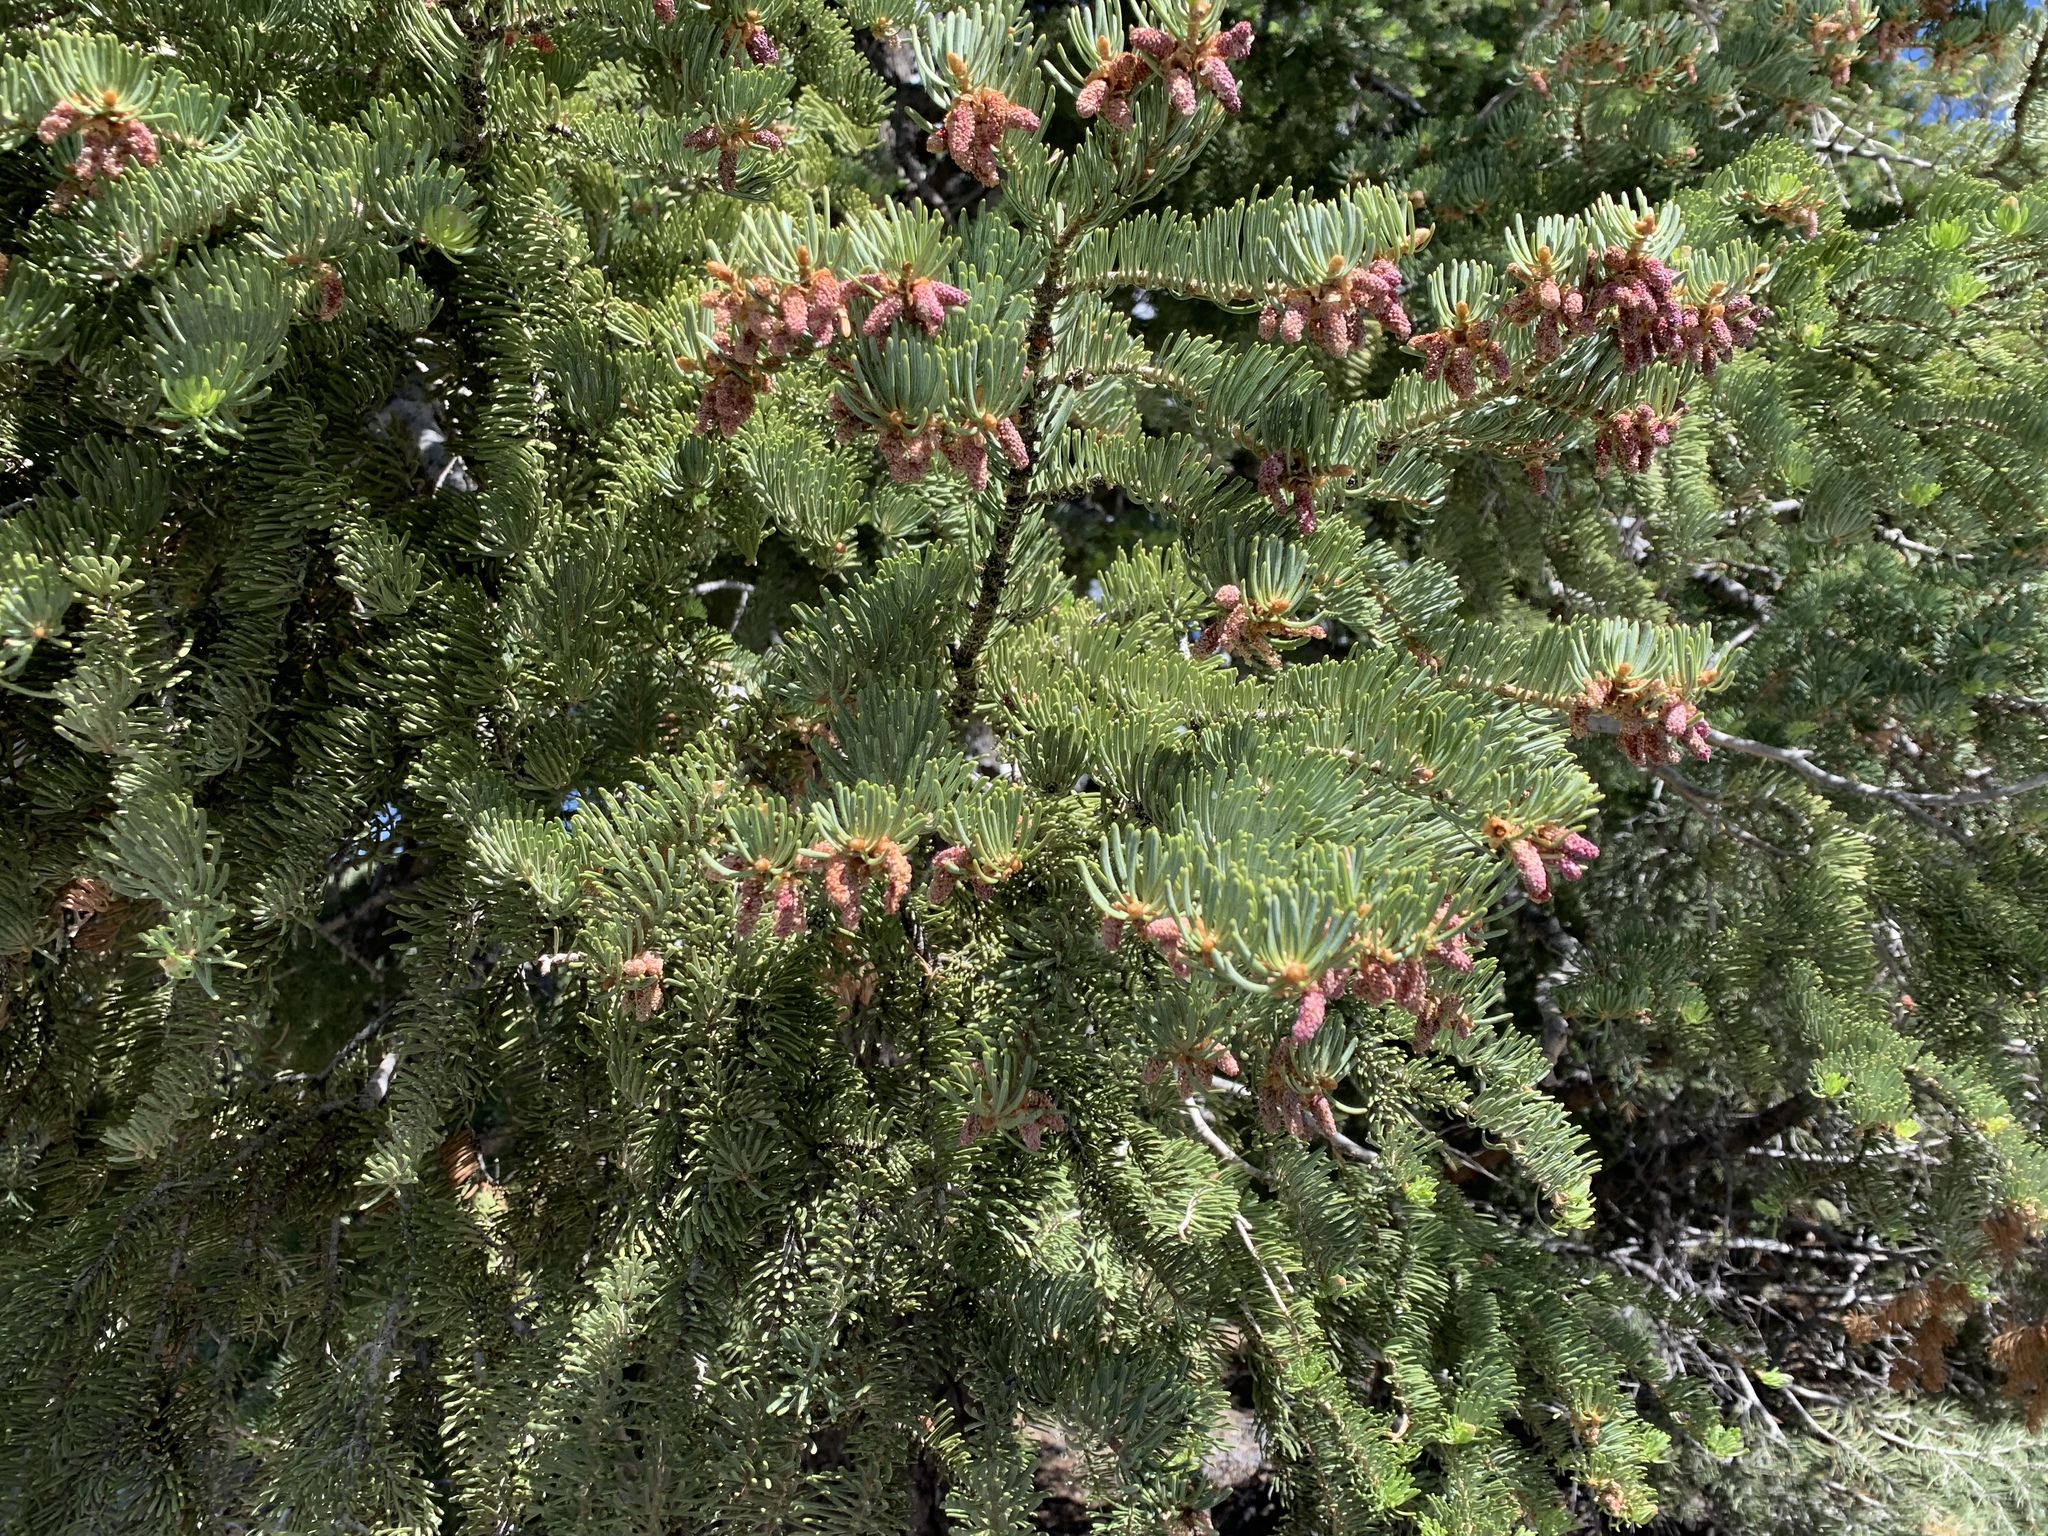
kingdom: Plantae
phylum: Tracheophyta
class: Pinopsida
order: Pinales
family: Pinaceae
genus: Abies
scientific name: Abies concolor
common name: Colorado fir
